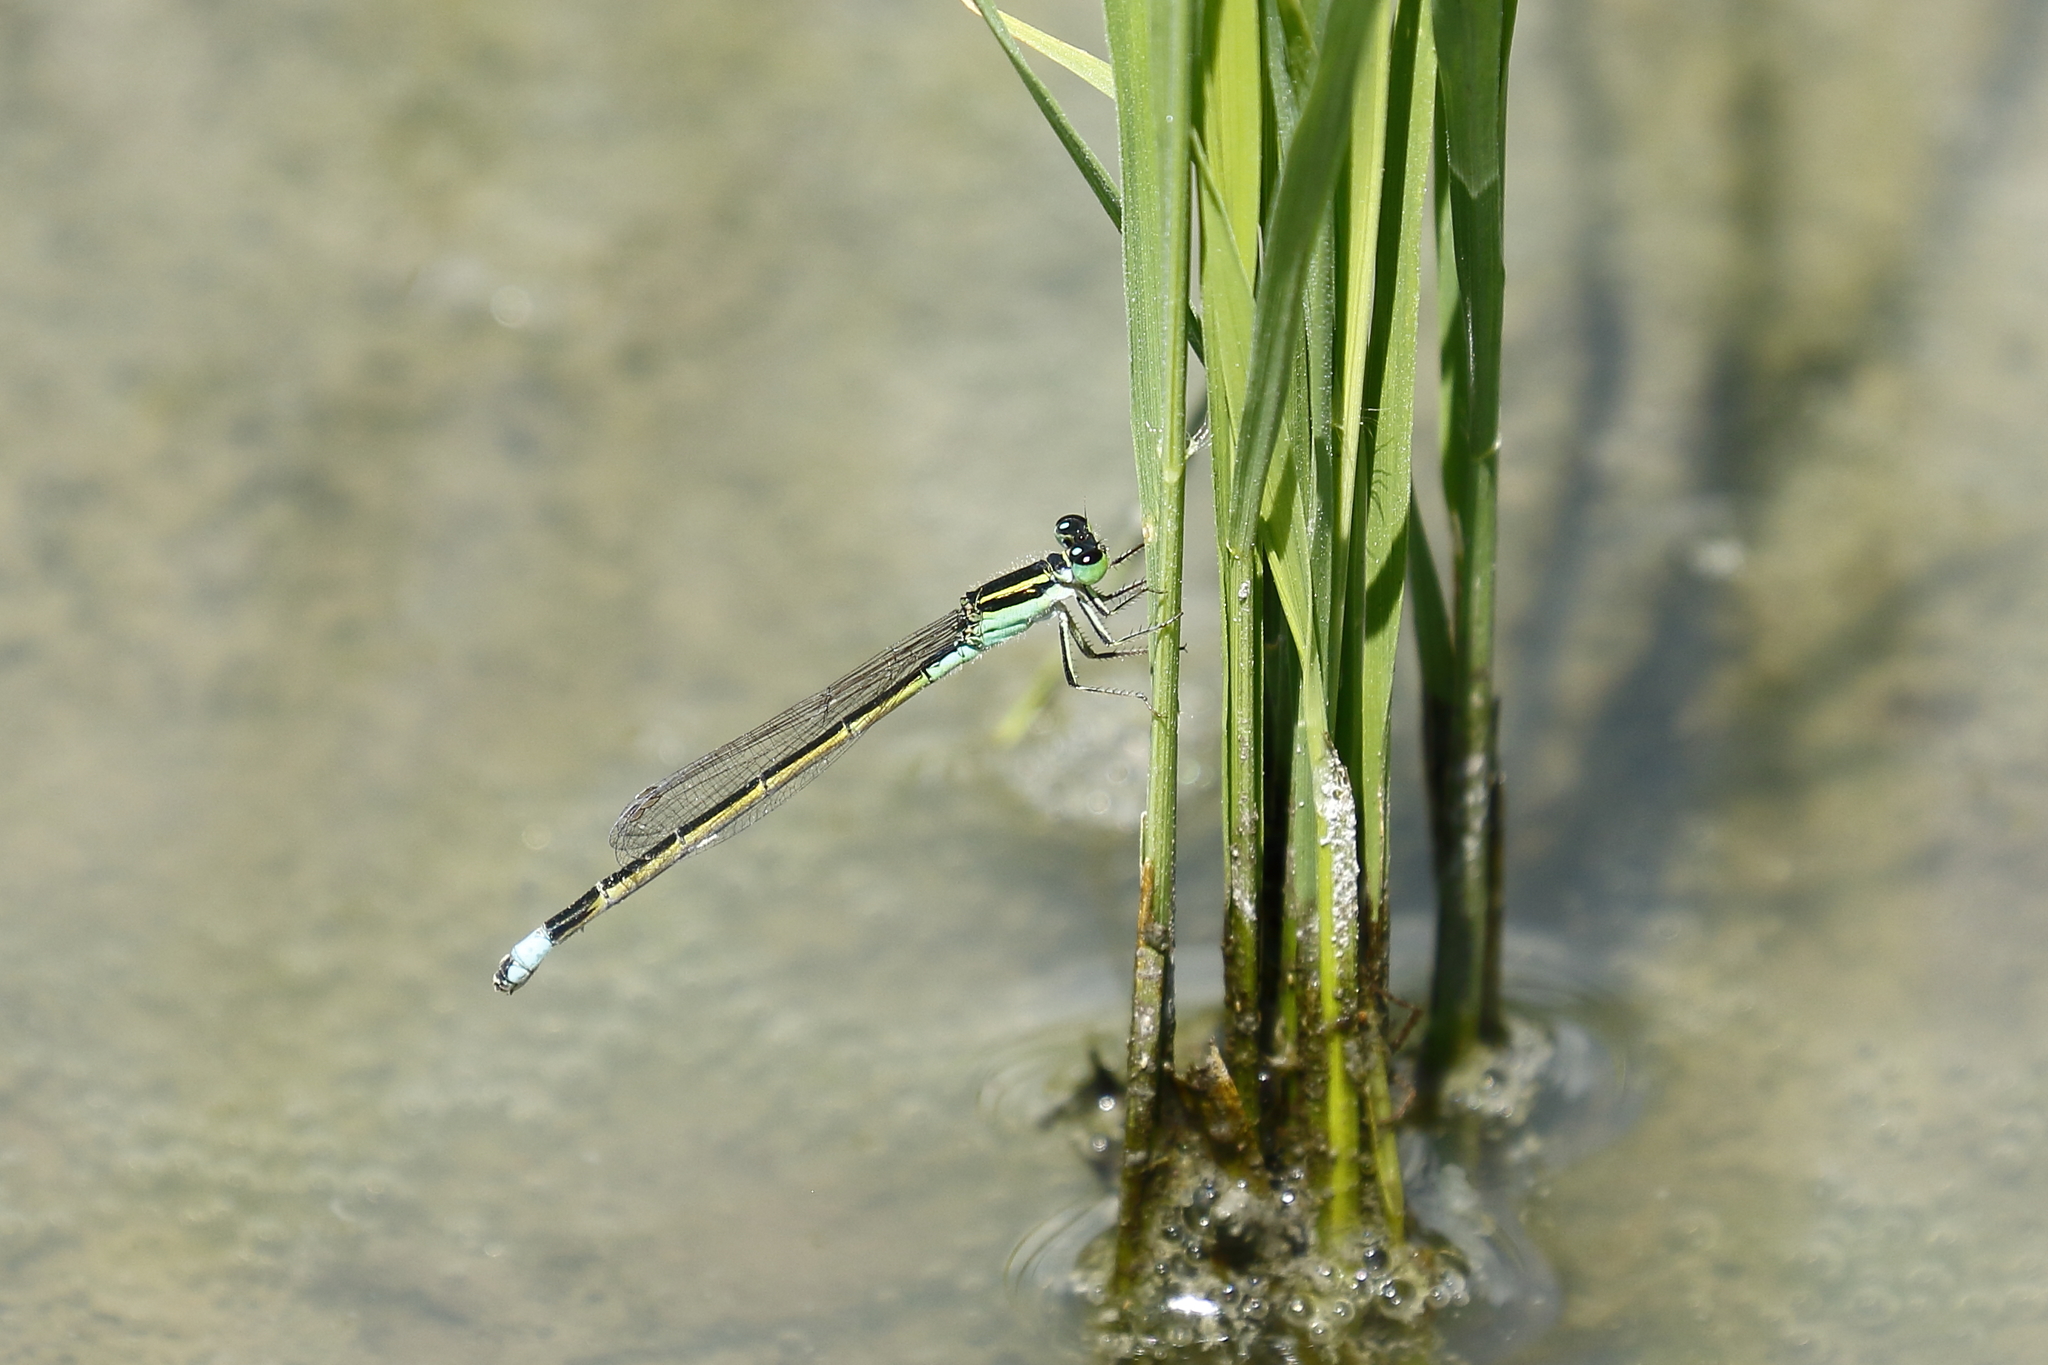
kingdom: Animalia
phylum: Arthropoda
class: Insecta
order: Odonata
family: Coenagrionidae
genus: Ischnura
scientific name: Ischnura senegalensis
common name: Tropical bluetail
